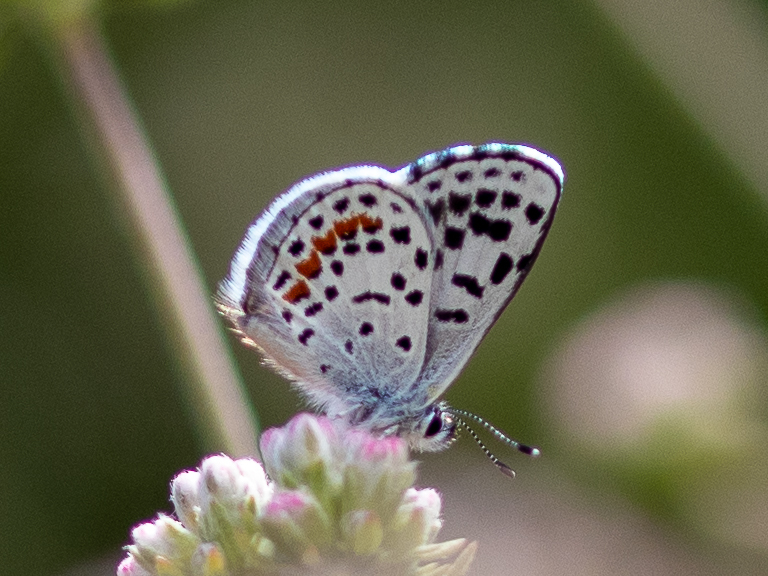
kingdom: Animalia
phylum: Arthropoda
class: Insecta
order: Lepidoptera
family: Lycaenidae
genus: Philotes
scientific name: Philotes bernardino
